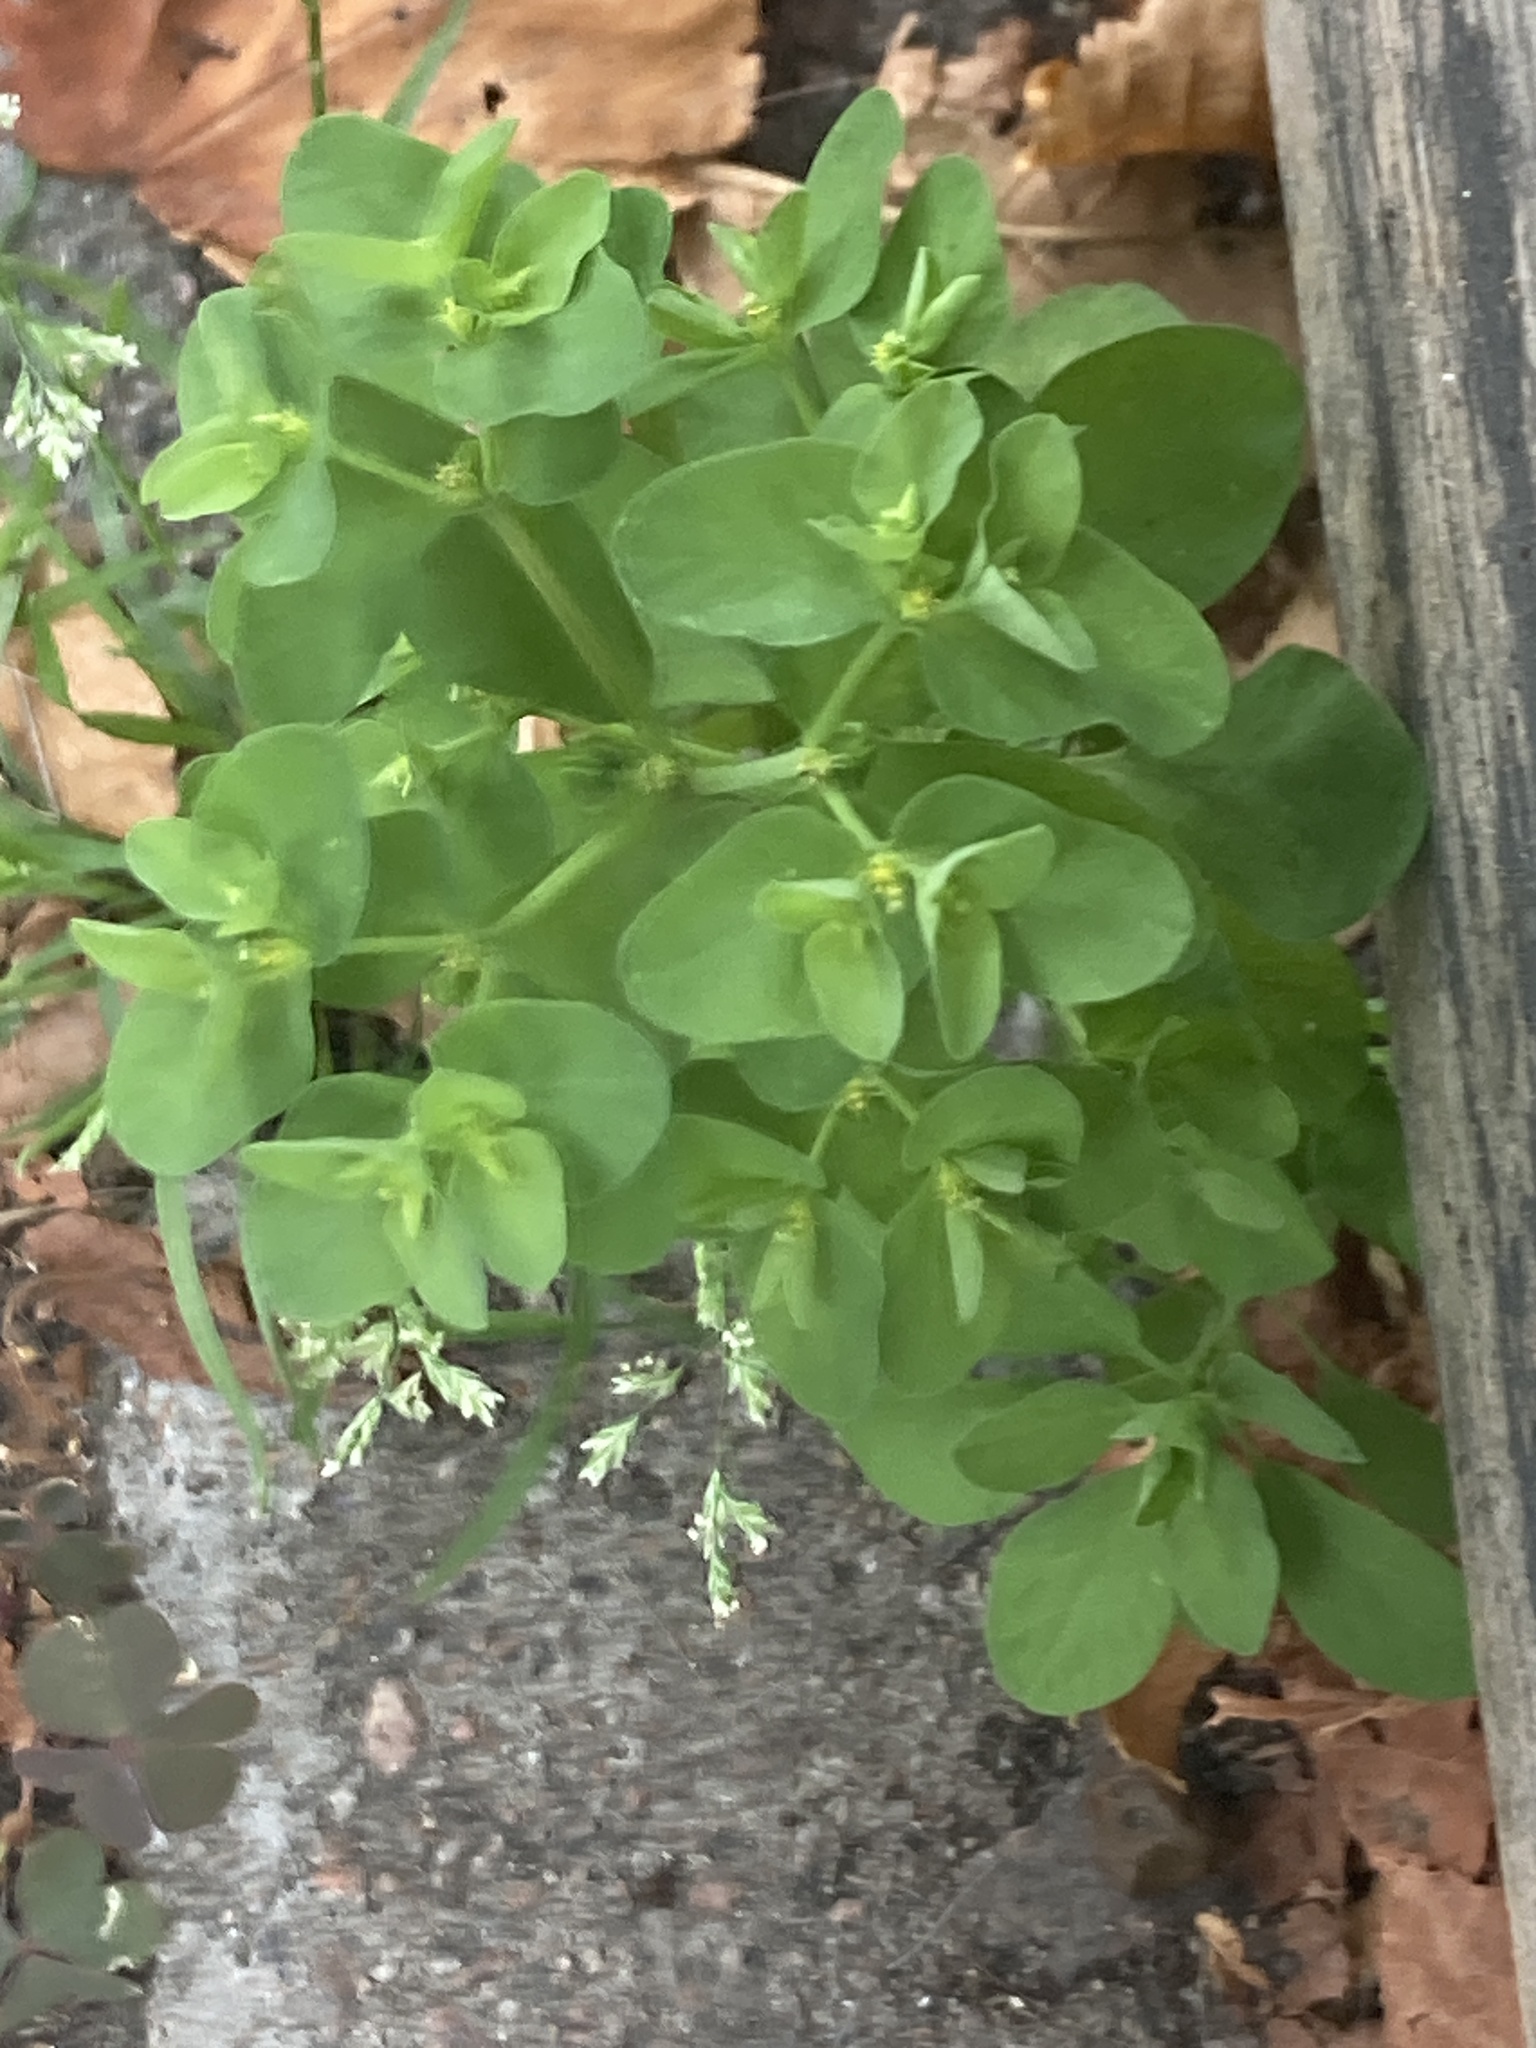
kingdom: Plantae
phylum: Tracheophyta
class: Magnoliopsida
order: Malpighiales
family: Euphorbiaceae
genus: Euphorbia
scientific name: Euphorbia peplus
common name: Petty spurge
